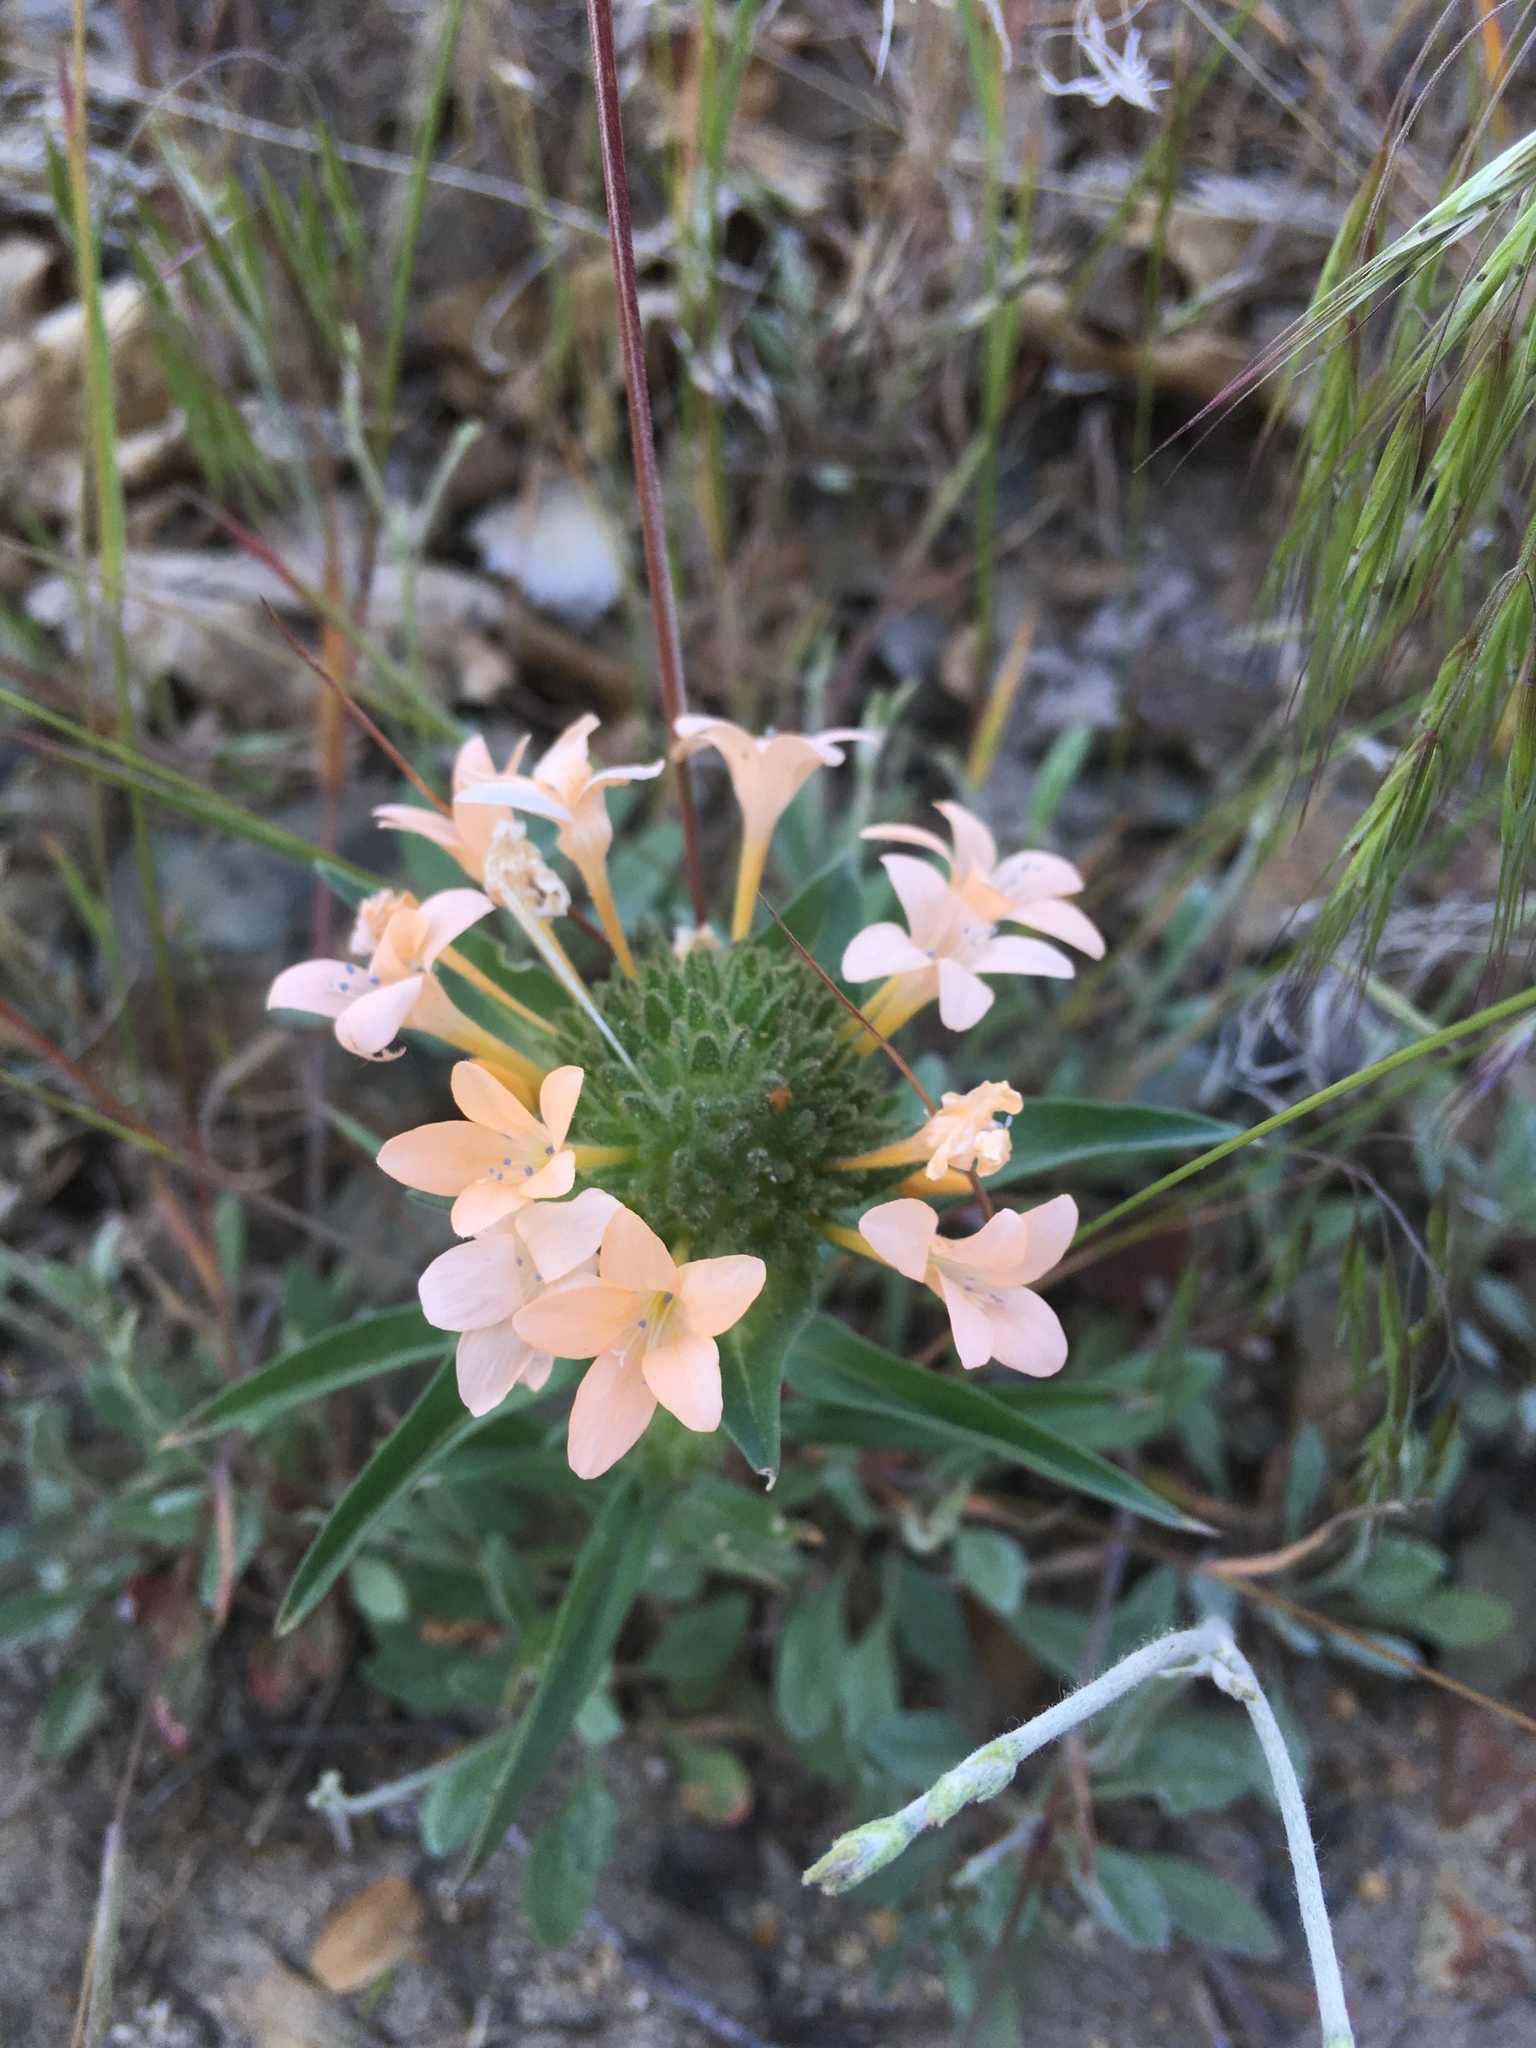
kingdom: Plantae
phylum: Tracheophyta
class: Magnoliopsida
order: Ericales
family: Polemoniaceae
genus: Collomia
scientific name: Collomia grandiflora
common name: California strawflower
